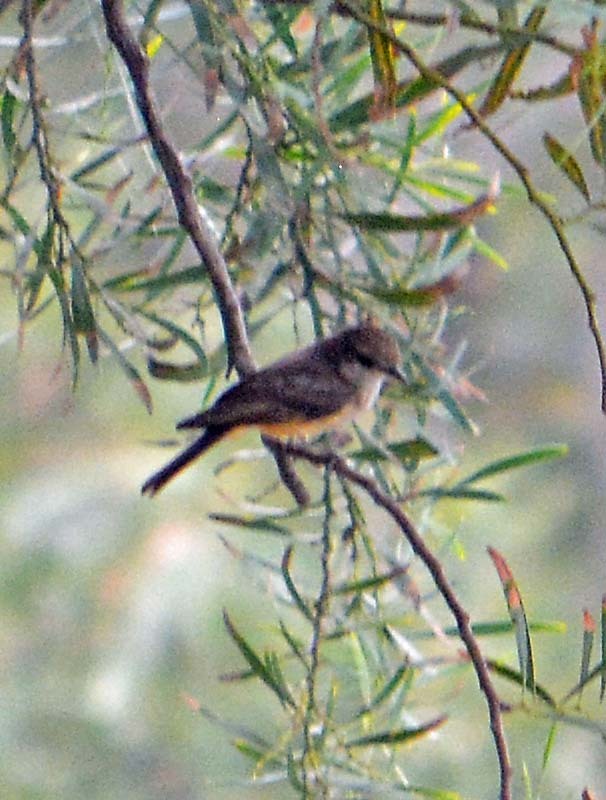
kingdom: Animalia
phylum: Chordata
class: Aves
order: Passeriformes
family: Tyrannidae
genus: Pyrocephalus
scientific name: Pyrocephalus rubinus
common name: Vermilion flycatcher
